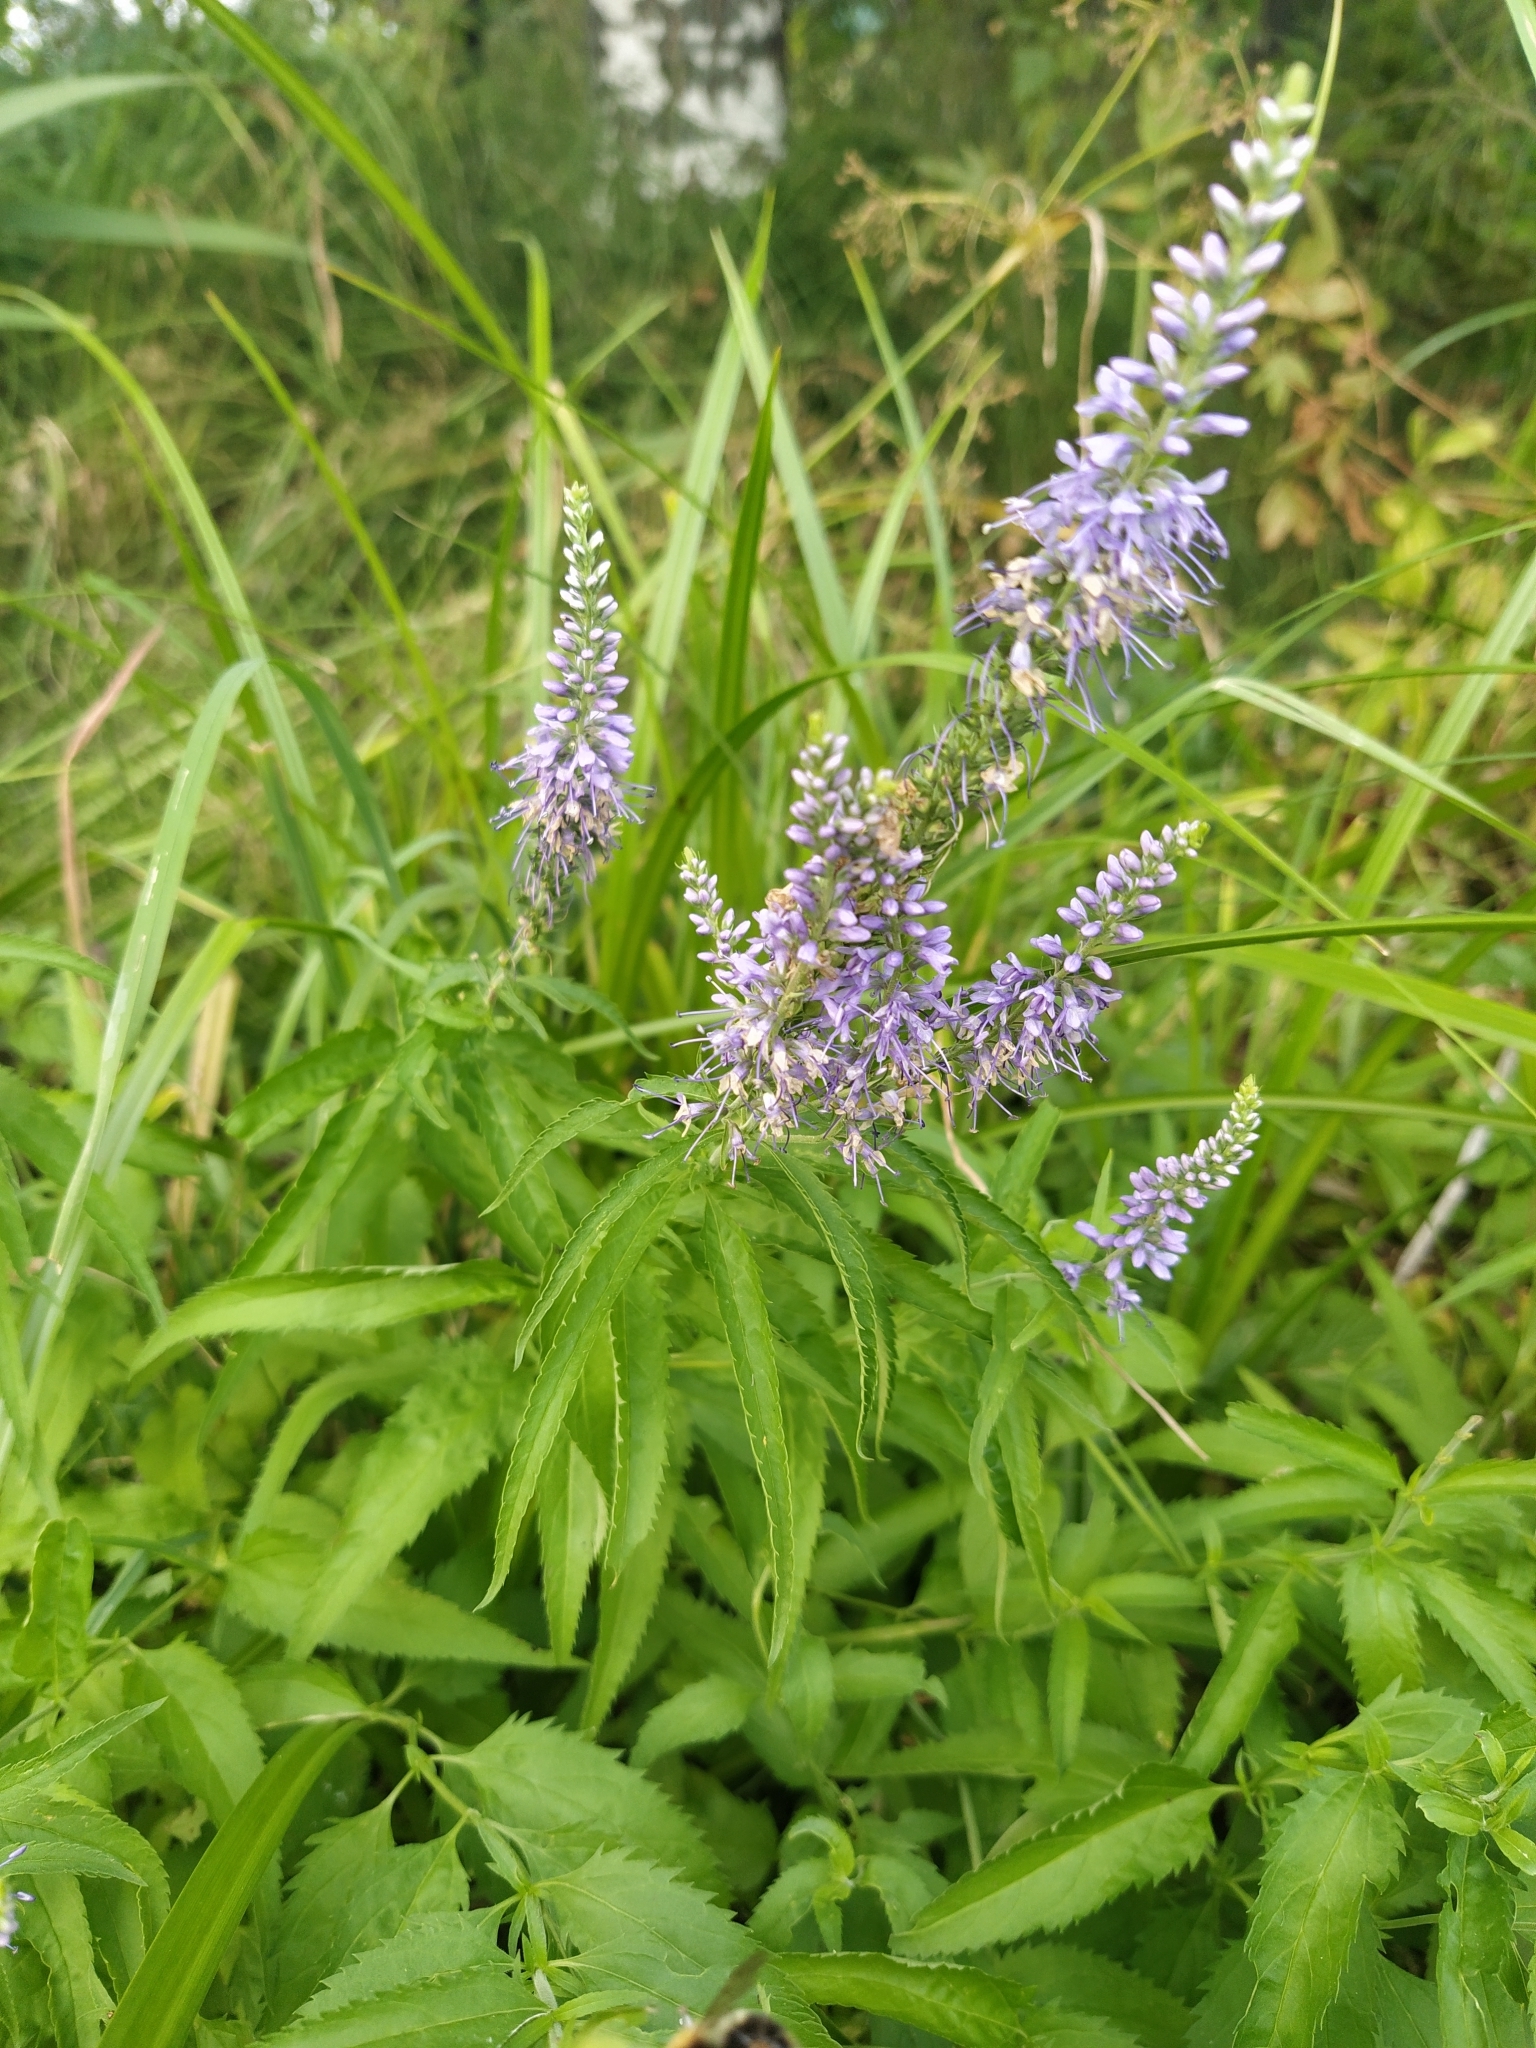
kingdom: Plantae
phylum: Tracheophyta
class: Magnoliopsida
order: Lamiales
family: Plantaginaceae
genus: Veronica
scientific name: Veronica longifolia
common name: Garden speedwell
